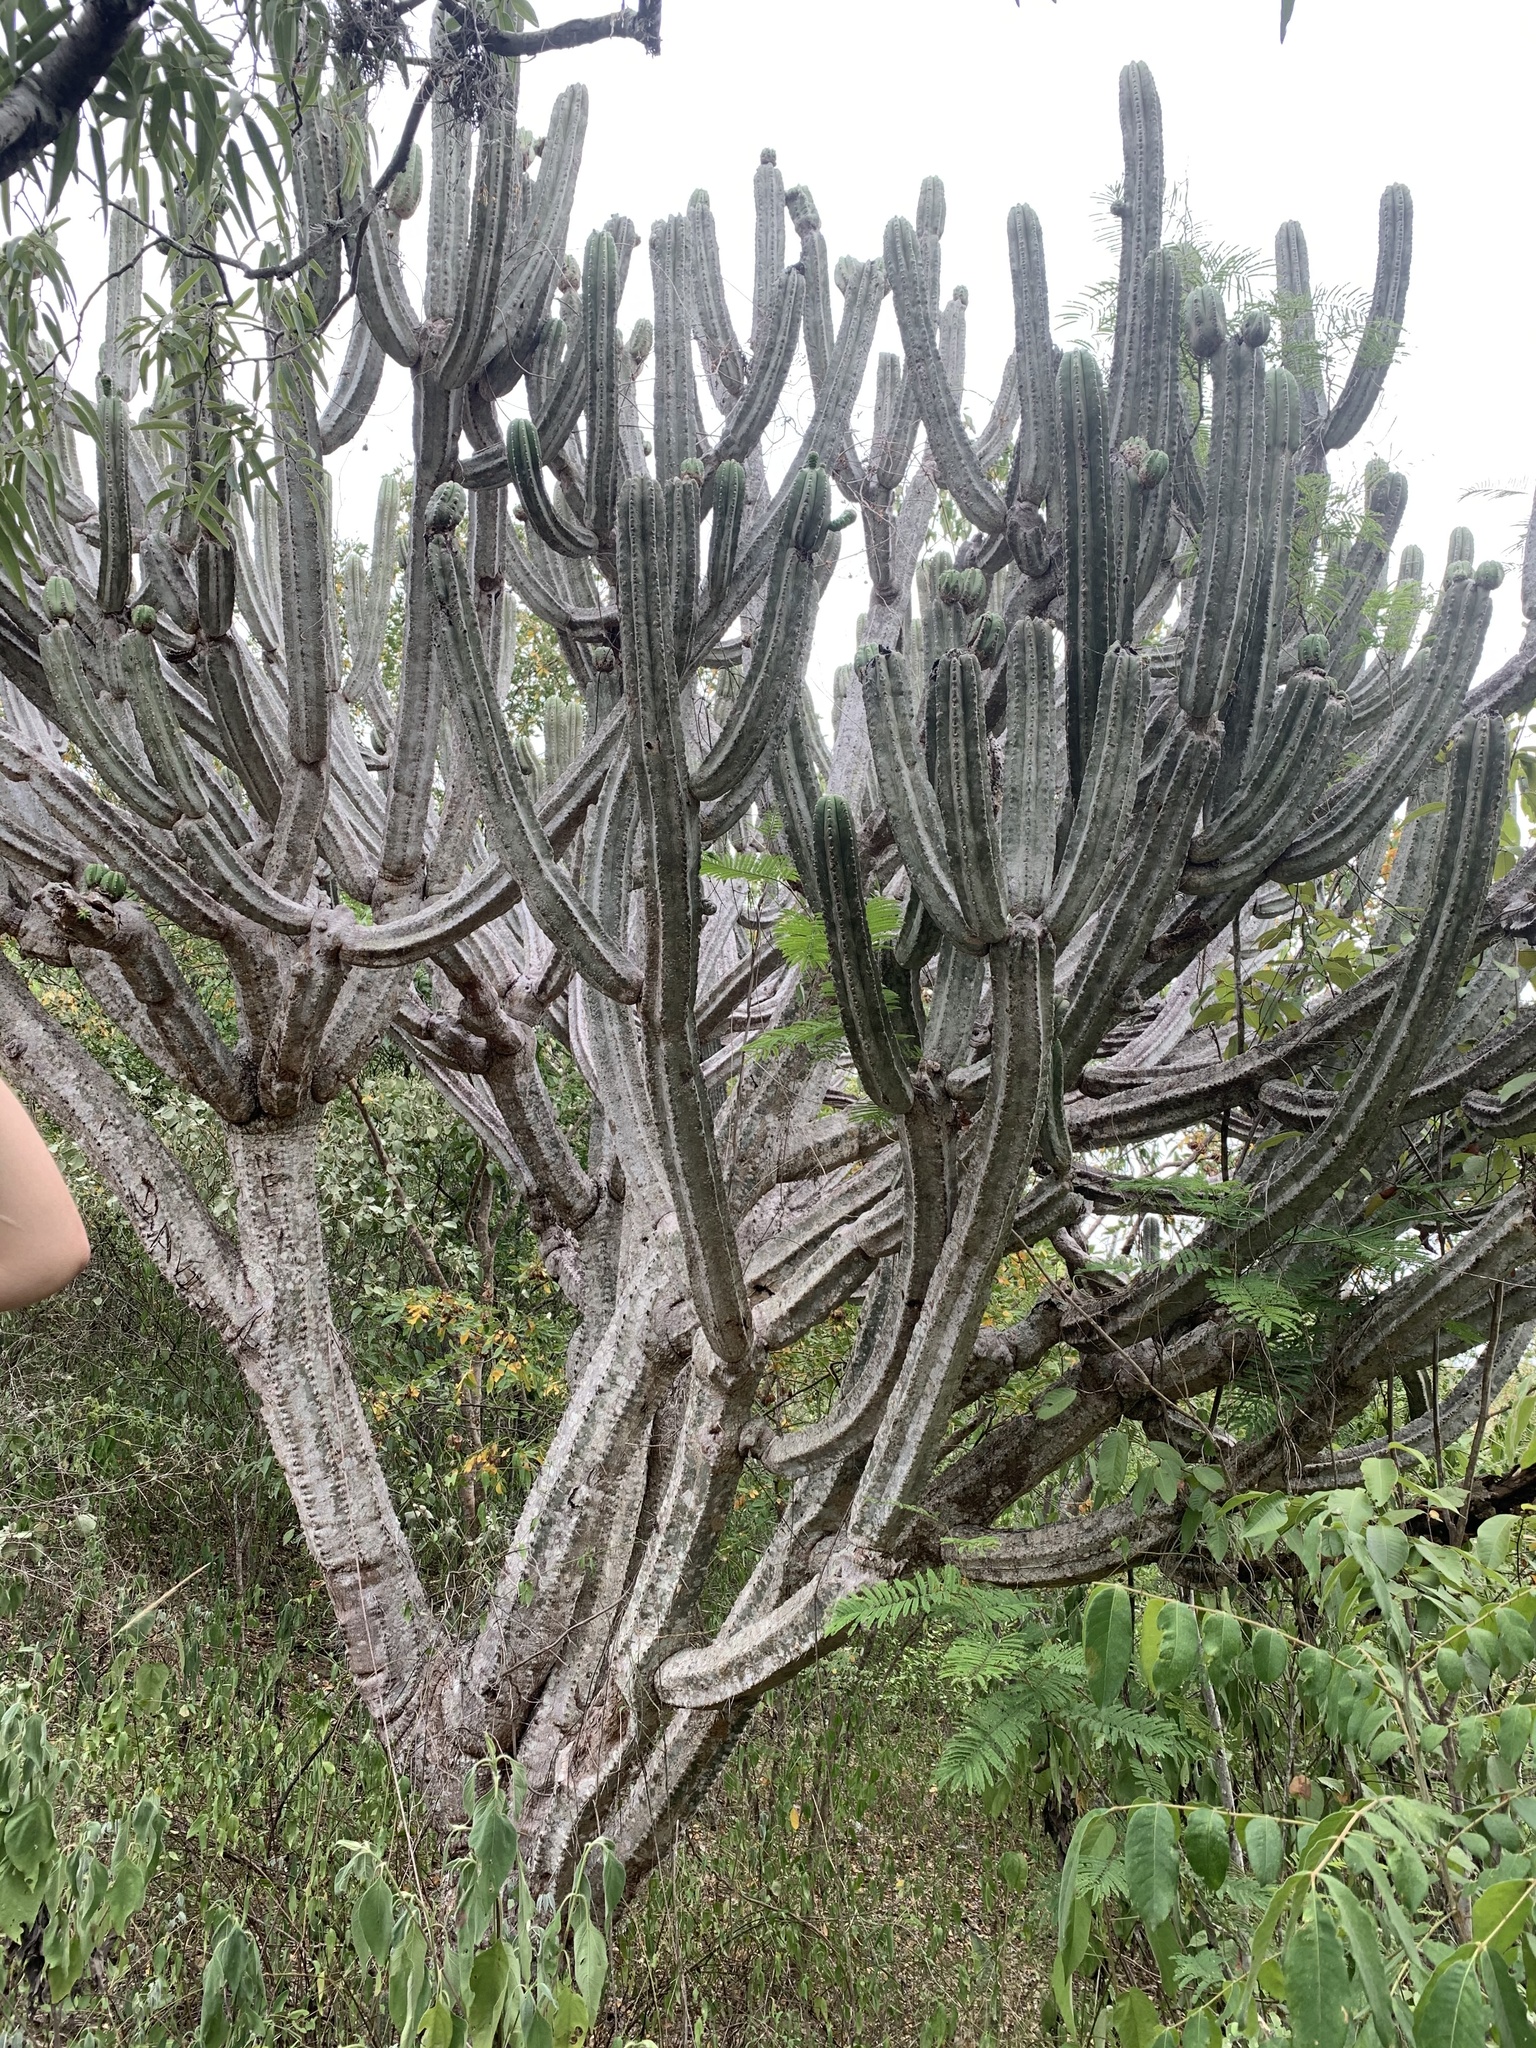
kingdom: Plantae
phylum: Tracheophyta
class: Magnoliopsida
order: Caryophyllales
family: Cactaceae
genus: Browningia
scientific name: Browningia altissima
